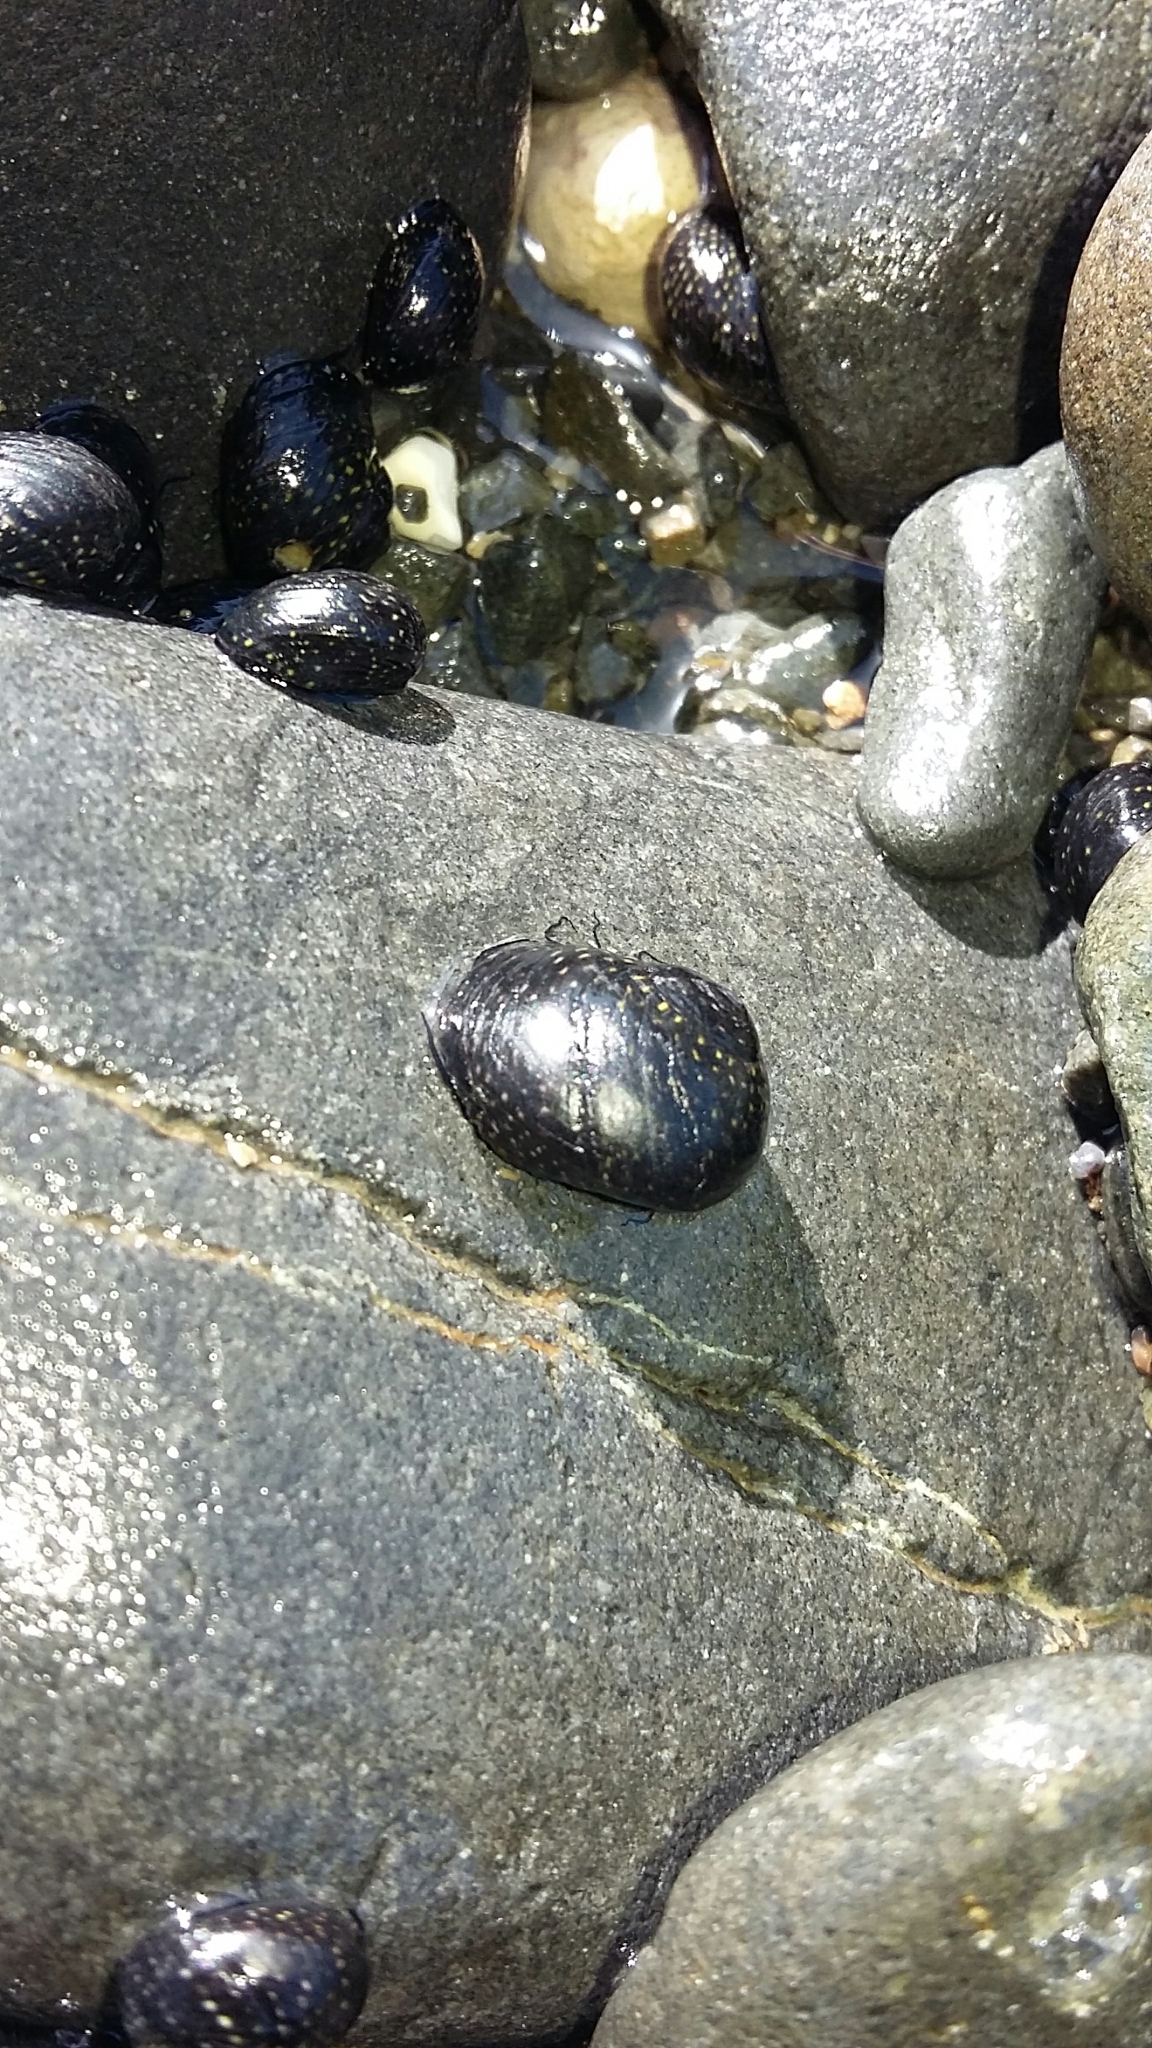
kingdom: Animalia
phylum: Mollusca
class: Gastropoda
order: Trochida
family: Trochidae
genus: Diloma
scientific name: Diloma aridum
